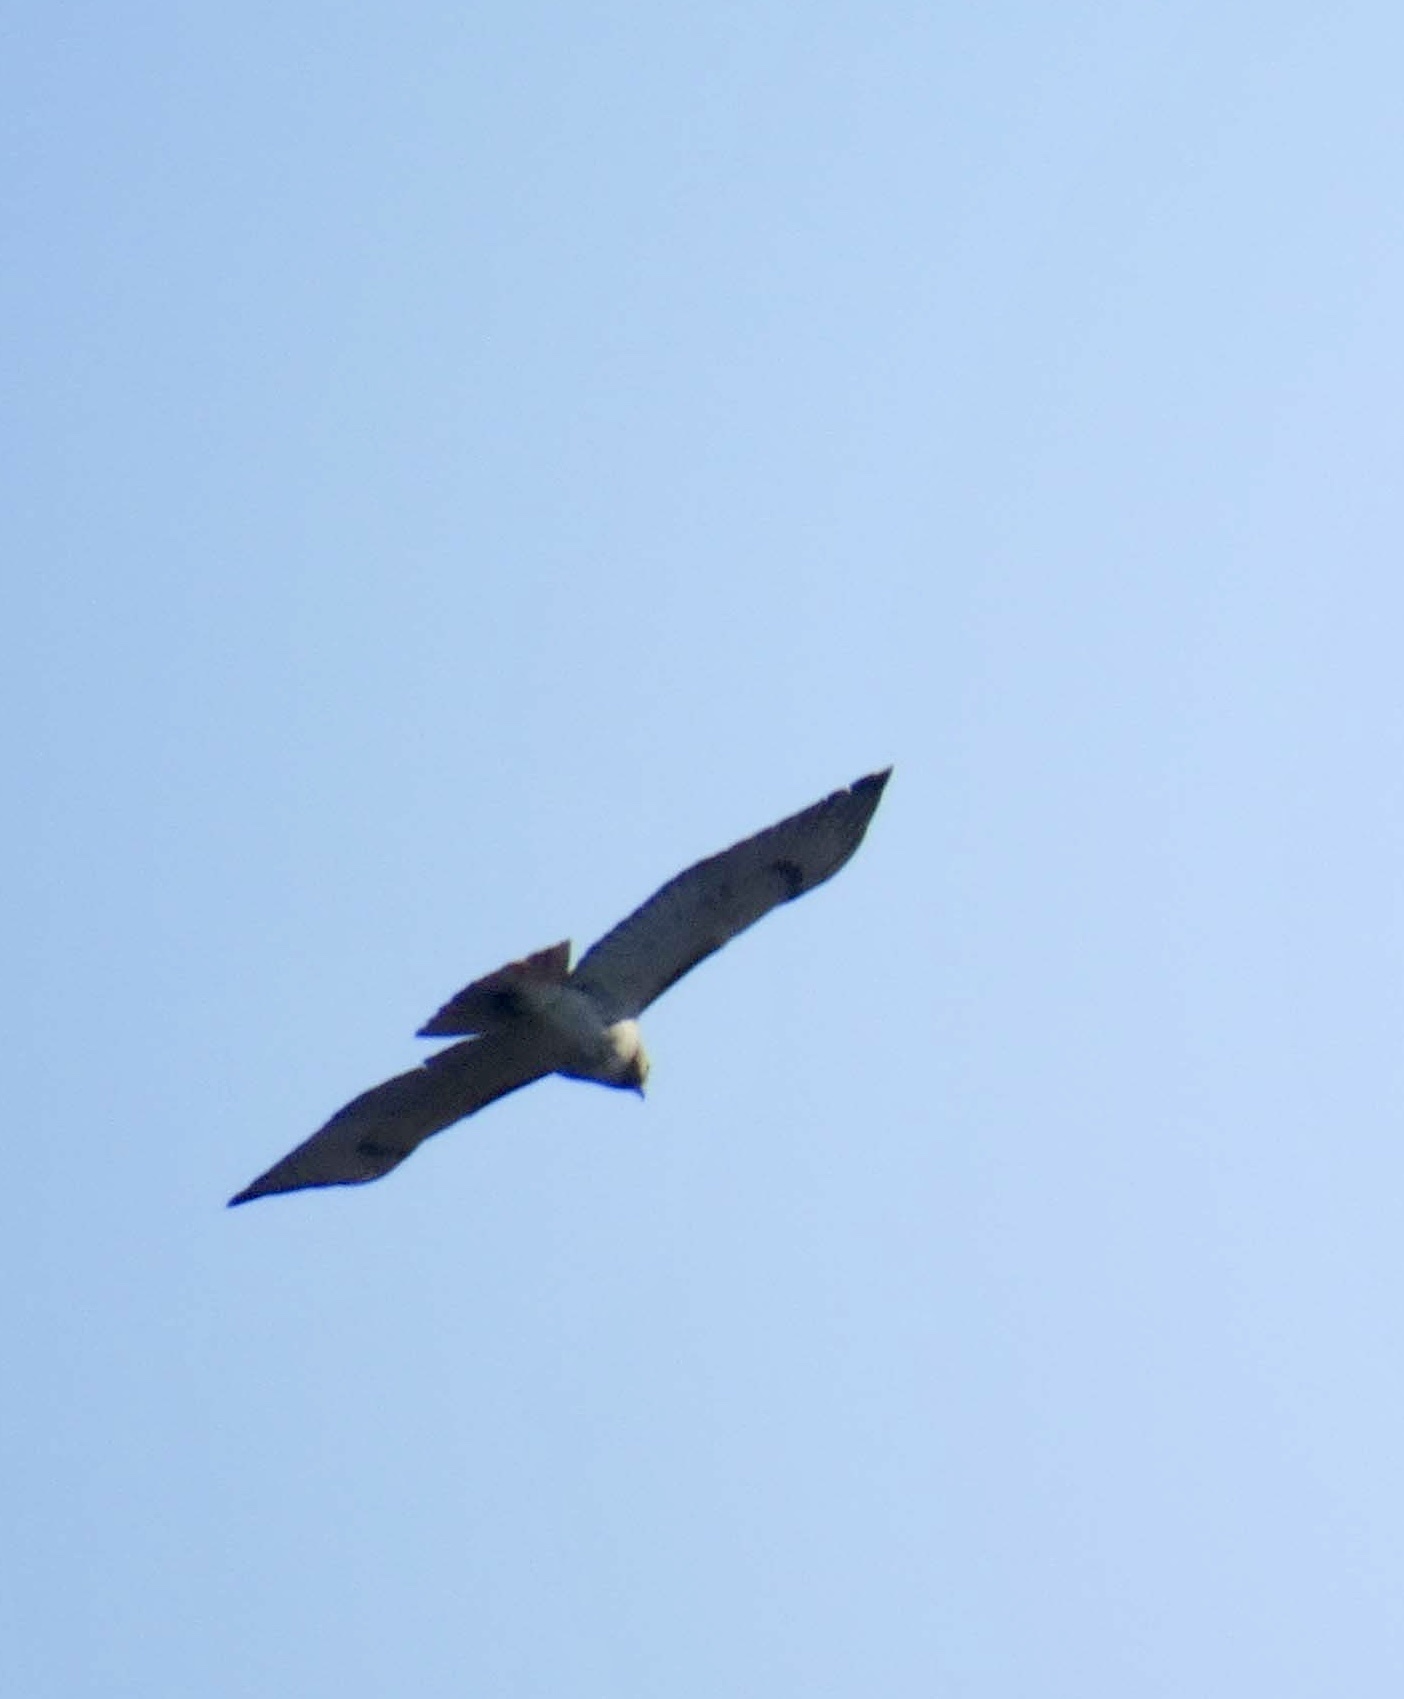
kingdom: Animalia
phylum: Chordata
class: Aves
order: Accipitriformes
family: Accipitridae
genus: Buteo
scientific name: Buteo jamaicensis
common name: Red-tailed hawk
